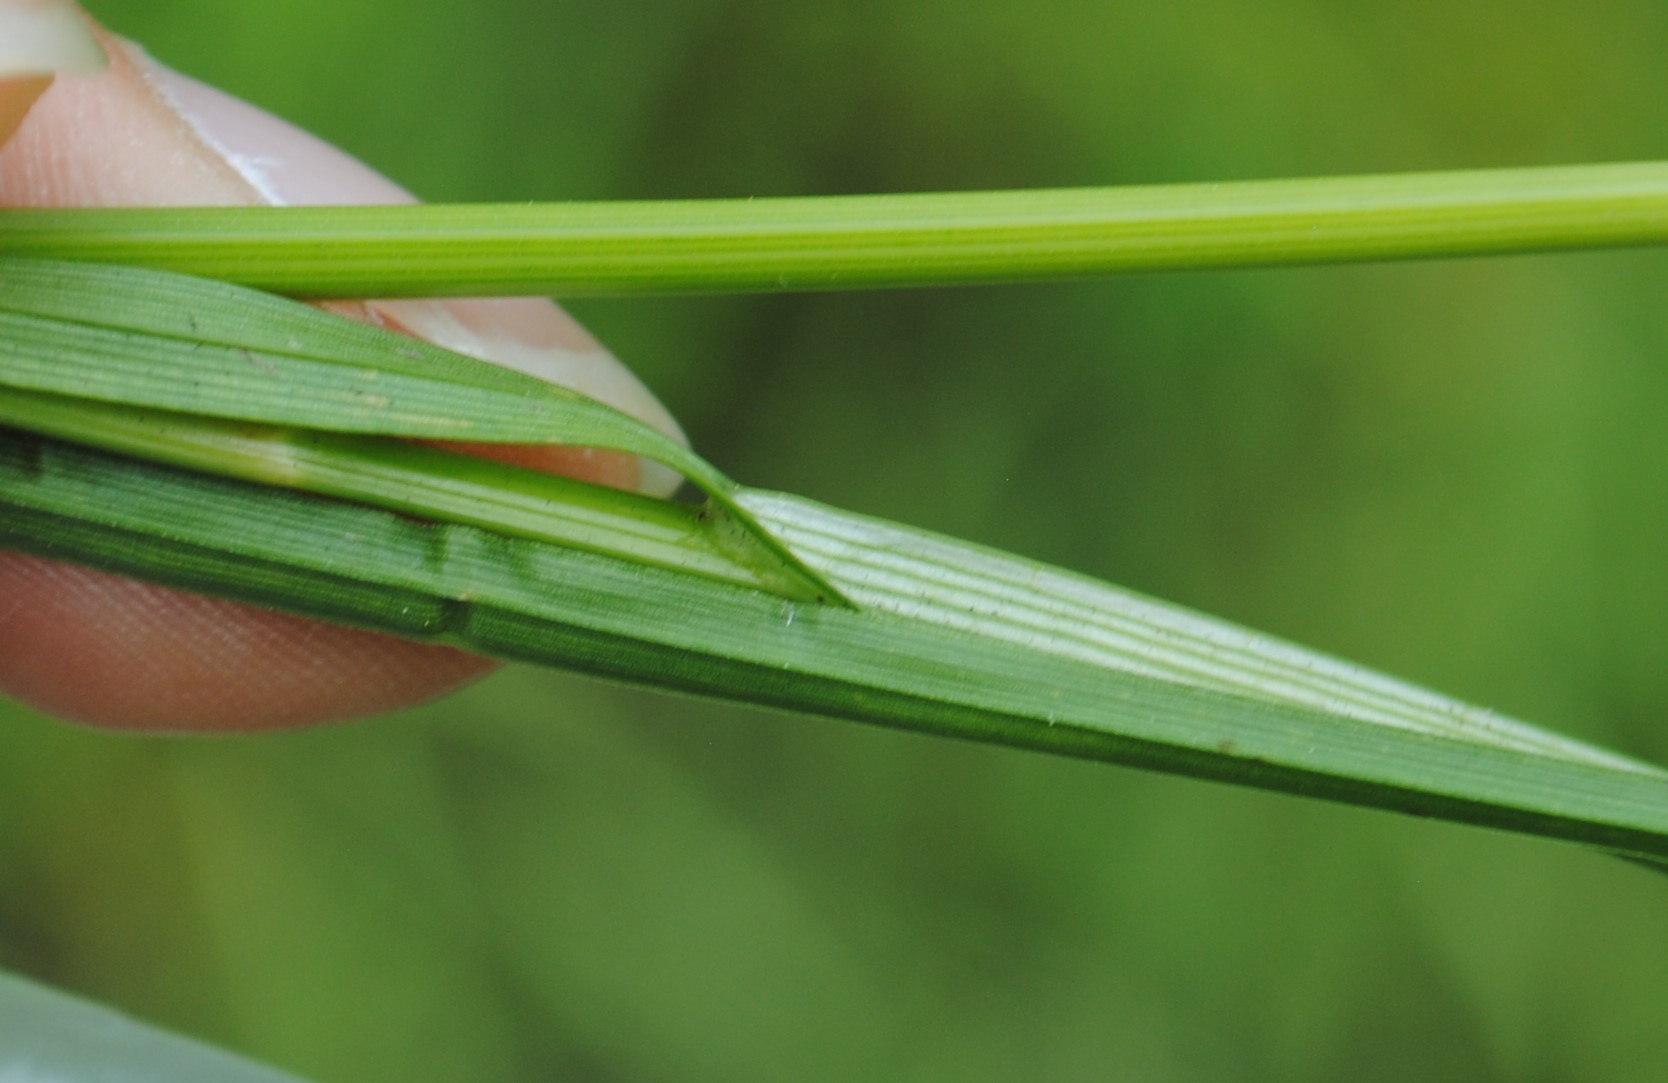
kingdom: Plantae
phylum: Tracheophyta
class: Liliopsida
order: Poales
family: Cyperaceae
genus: Carex
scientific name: Carex hormathodes
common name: Marsh straw sedge
